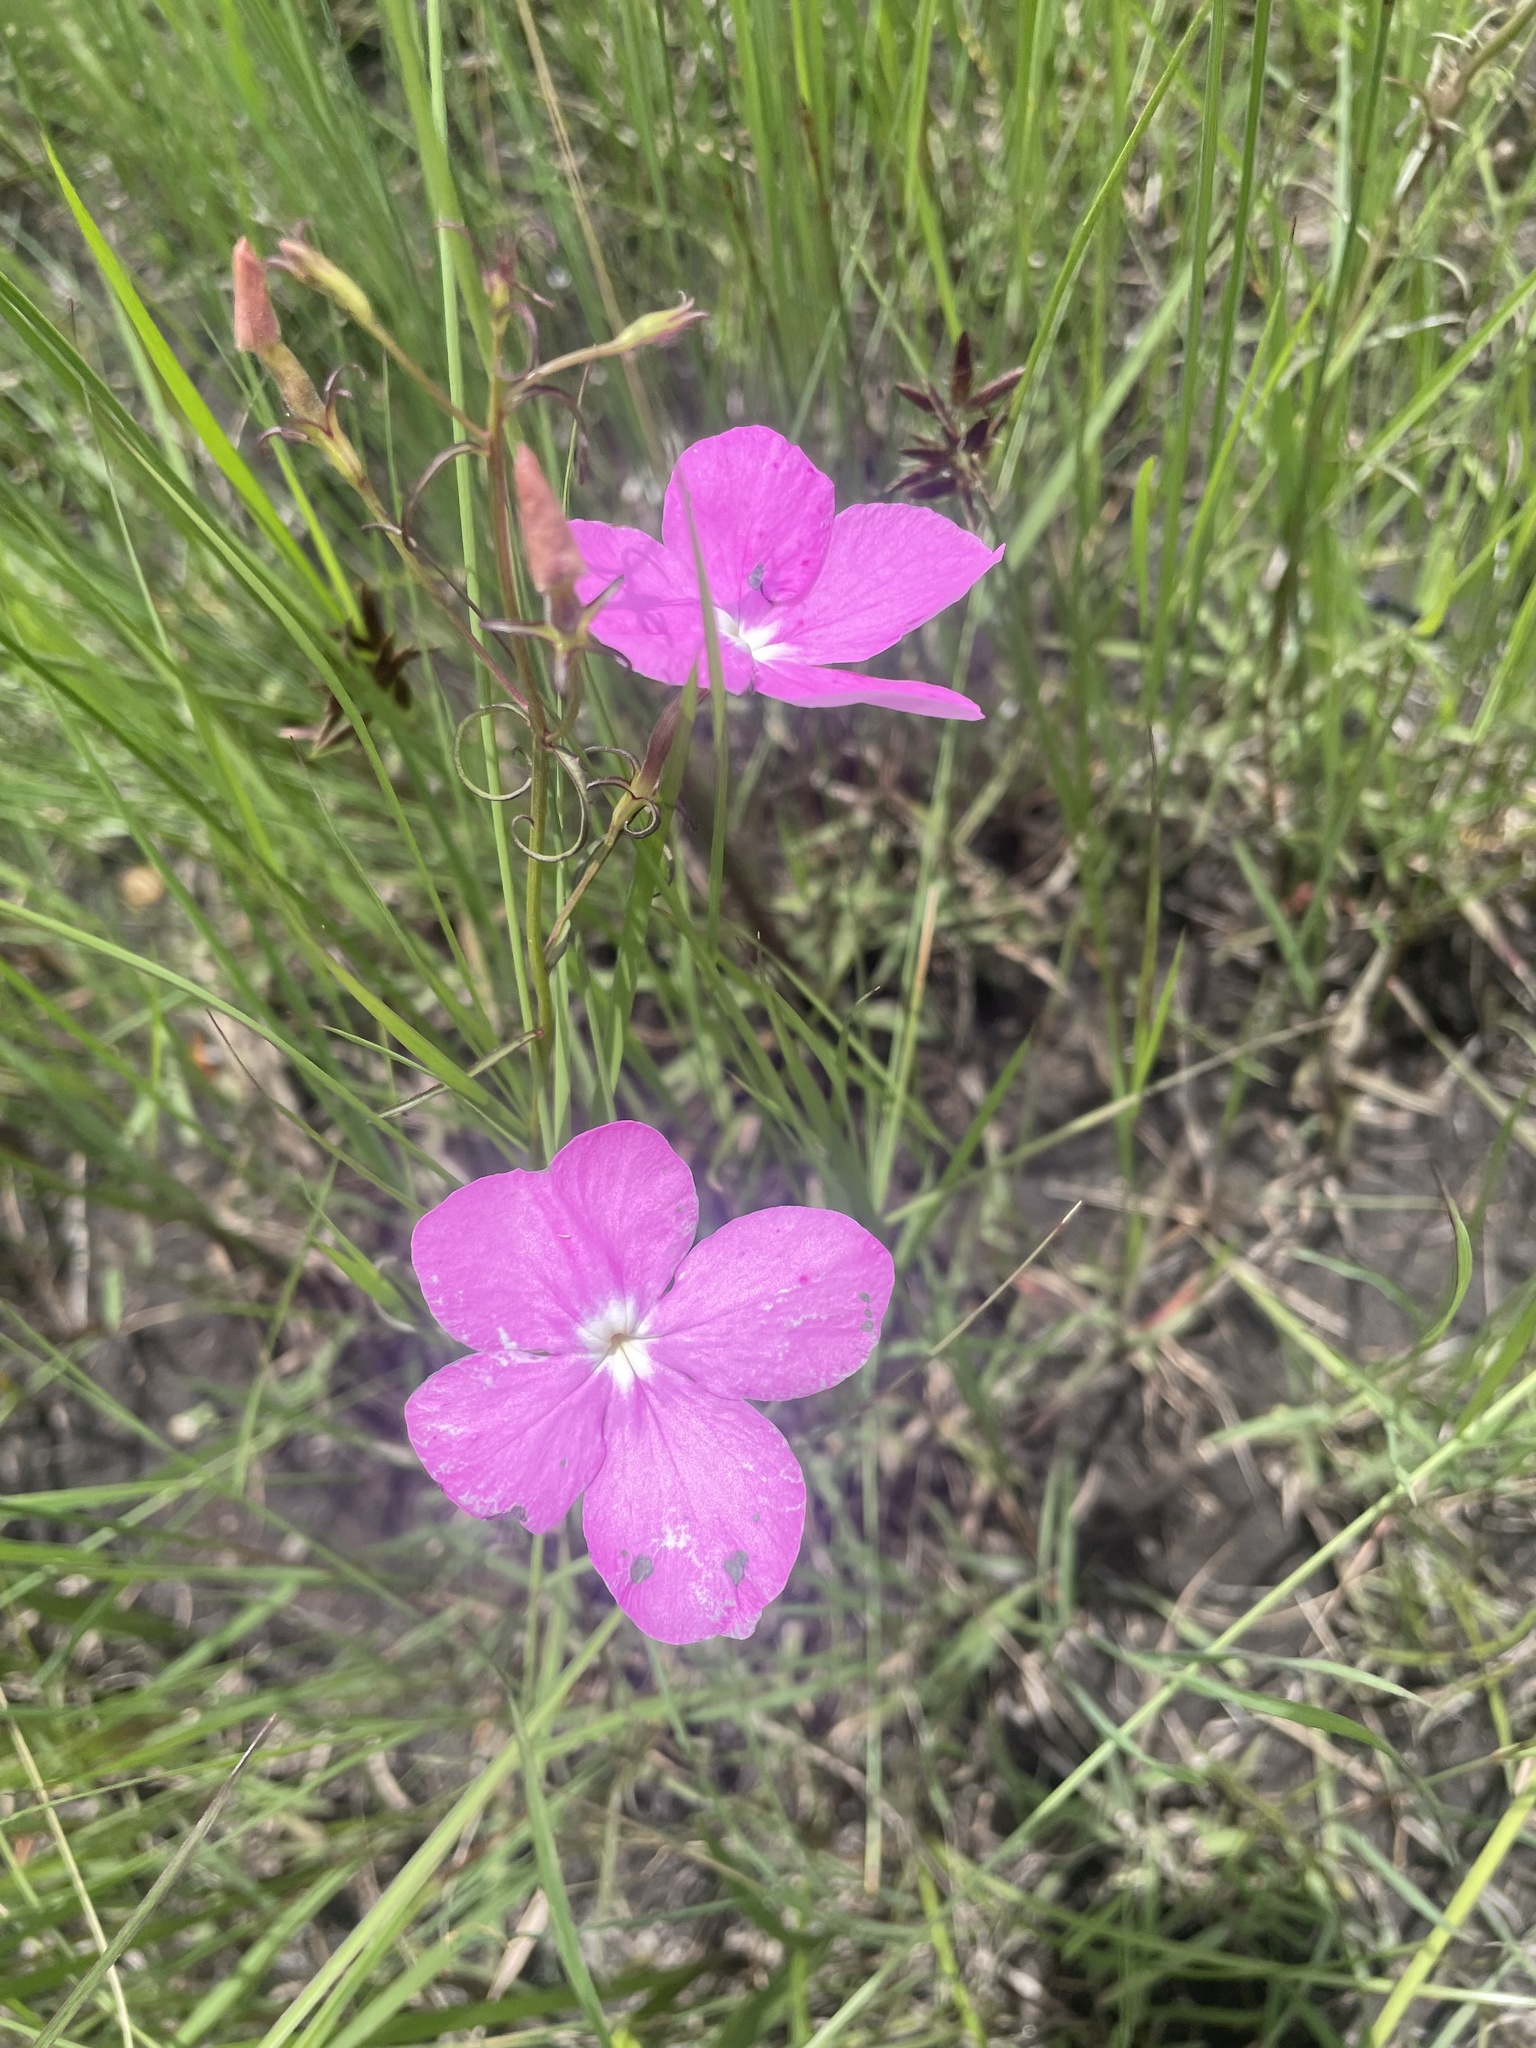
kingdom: Plantae
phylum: Tracheophyta
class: Magnoliopsida
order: Lamiales
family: Orobanchaceae
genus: Cycnium
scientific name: Cycnium tubulosum
